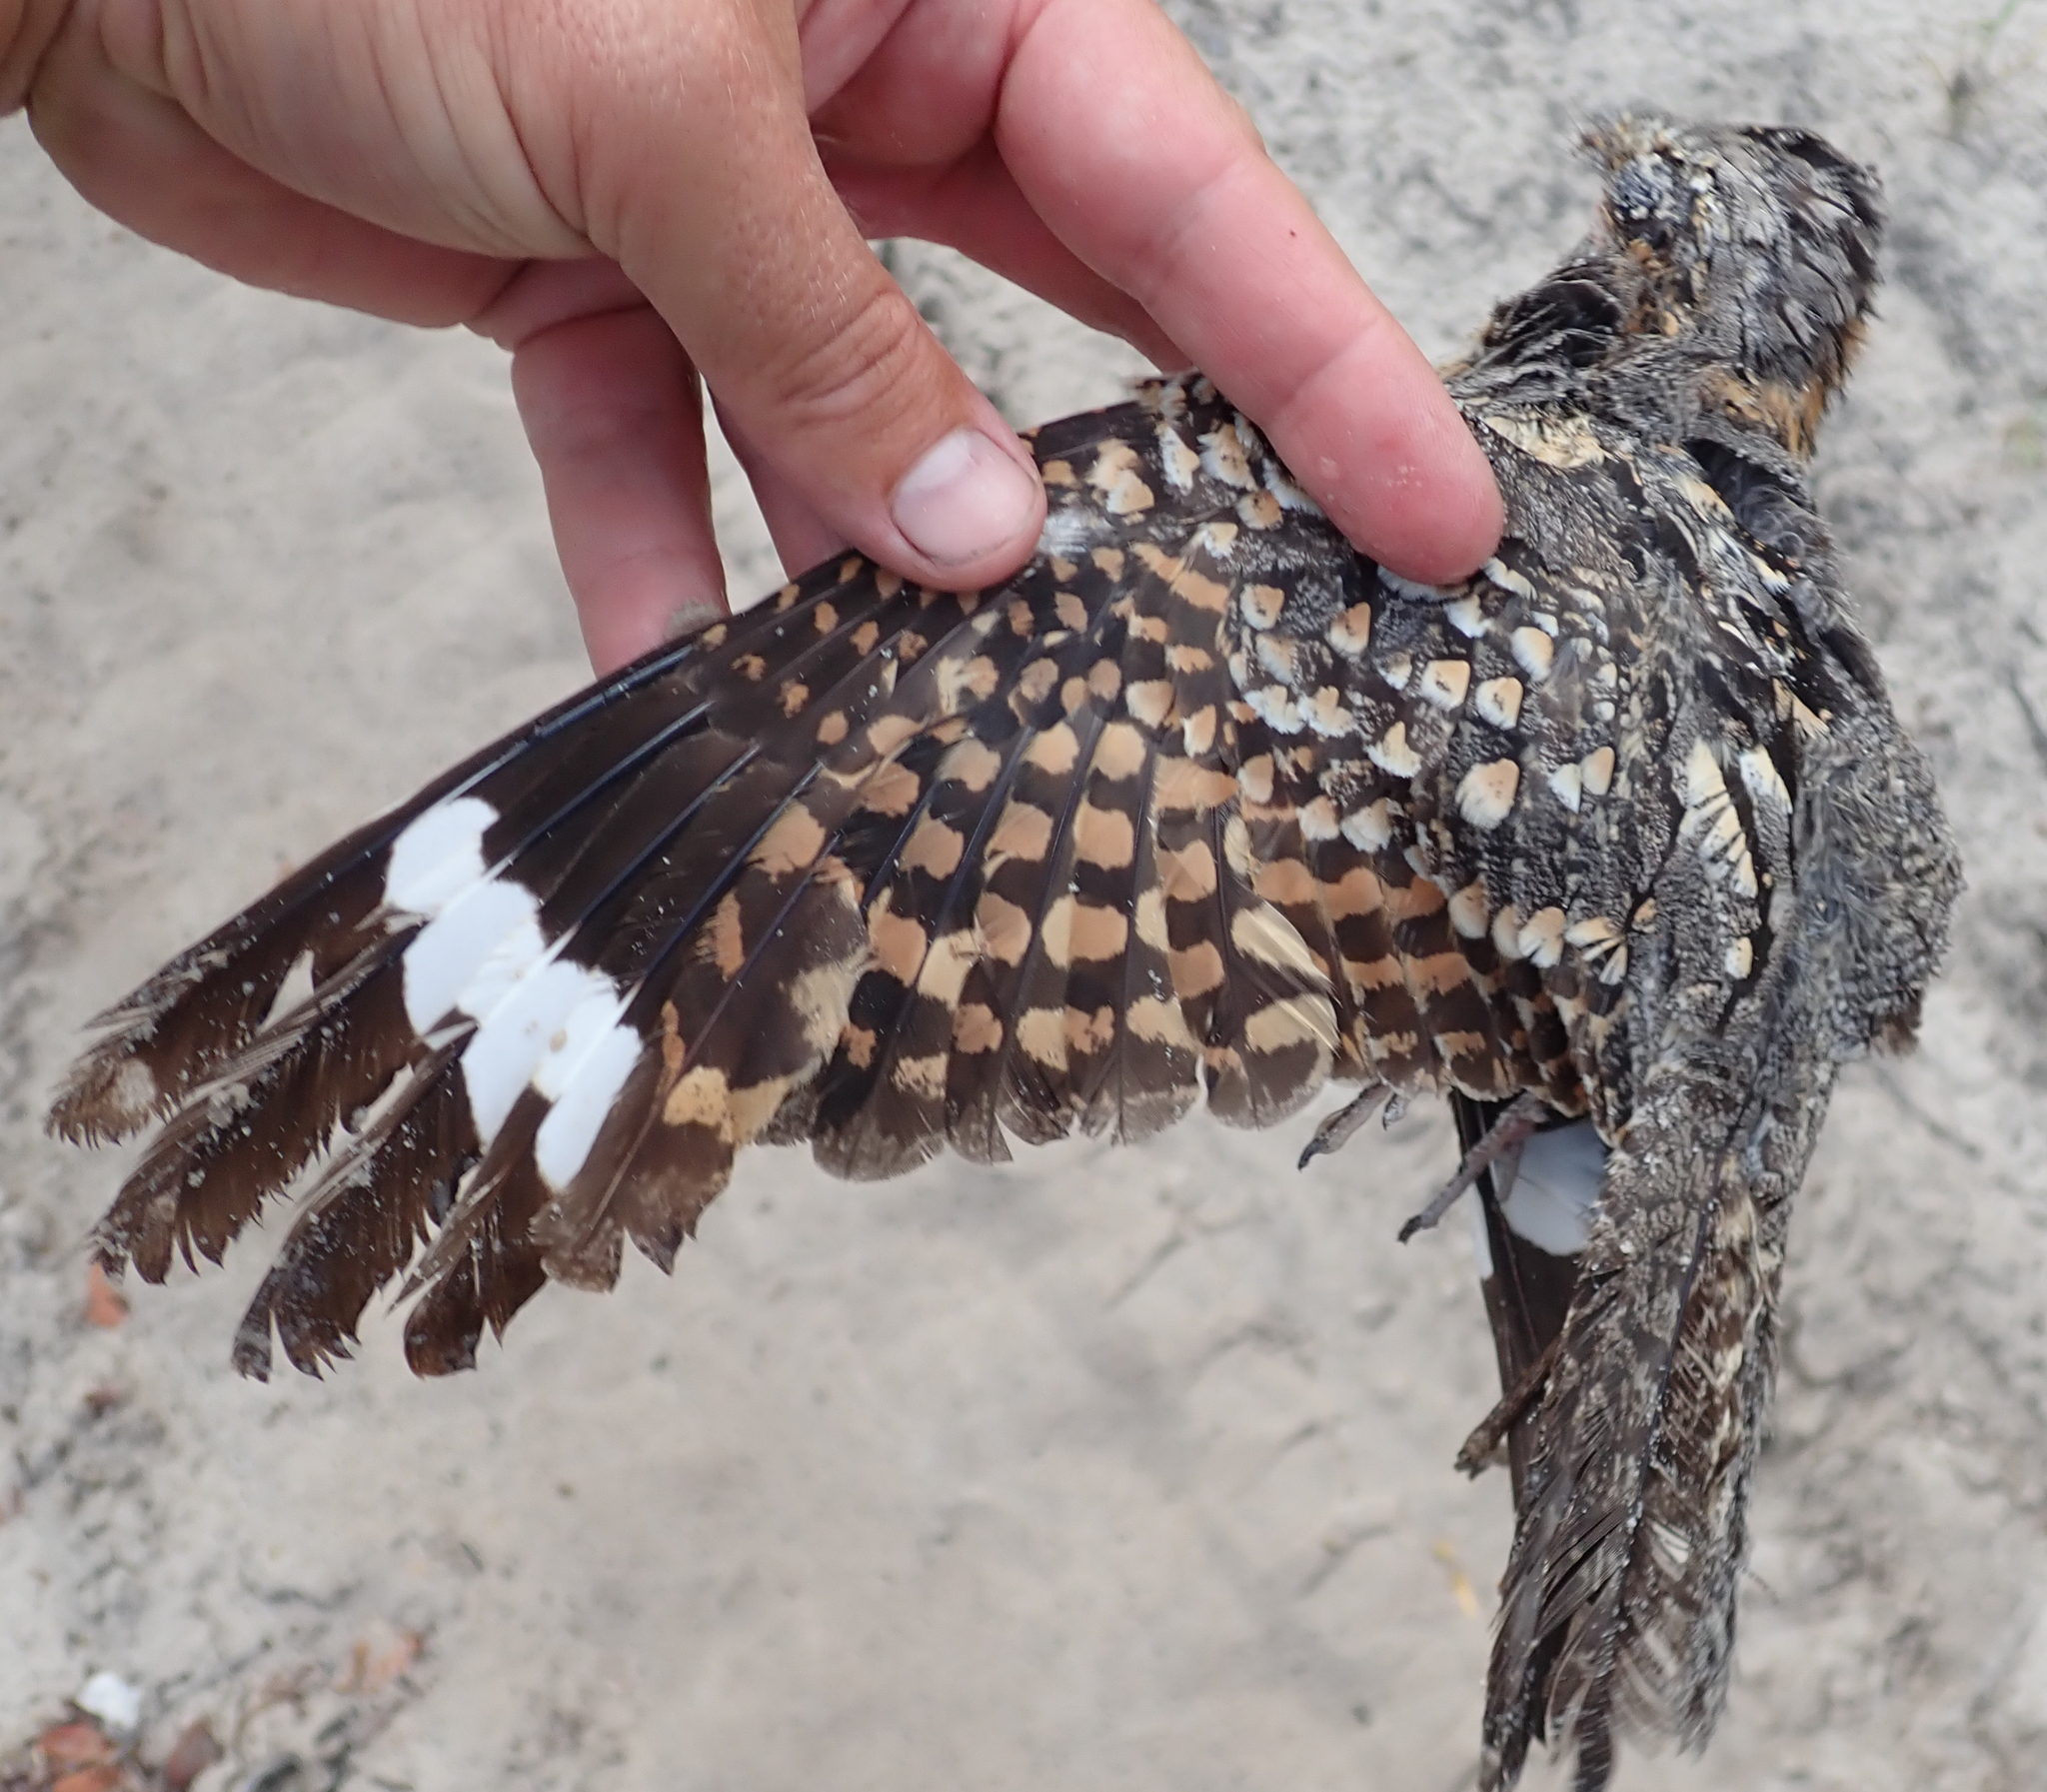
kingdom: Animalia
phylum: Chordata
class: Aves
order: Caprimulgiformes
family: Caprimulgidae
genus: Caprimulgus
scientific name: Caprimulgus rufigena
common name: Rufous-cheeked nightjar
